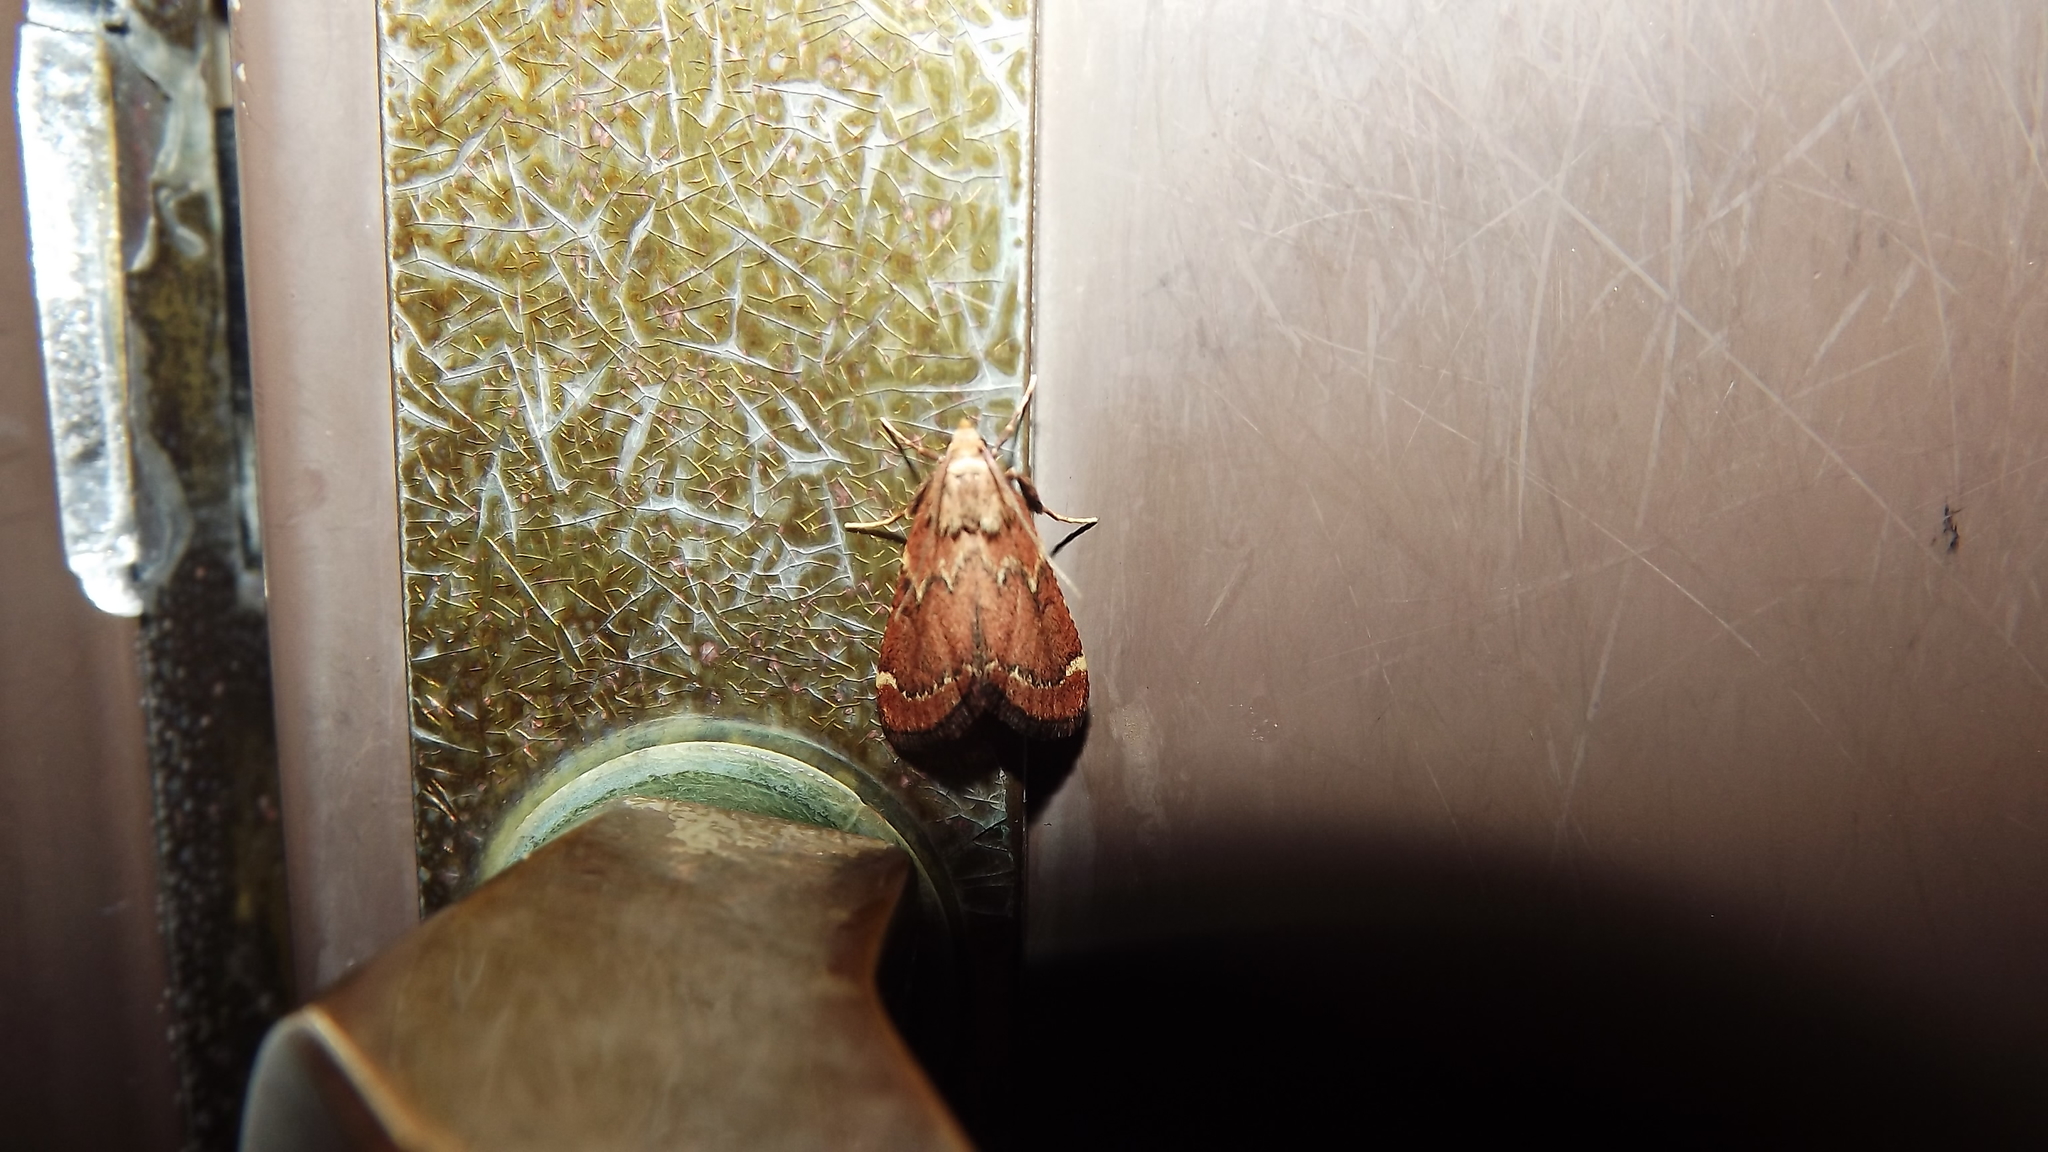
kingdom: Animalia
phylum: Arthropoda
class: Insecta
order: Lepidoptera
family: Pyralidae
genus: Hypsopygia
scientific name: Hypsopygia intermedialis
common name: Red-shawled moth
